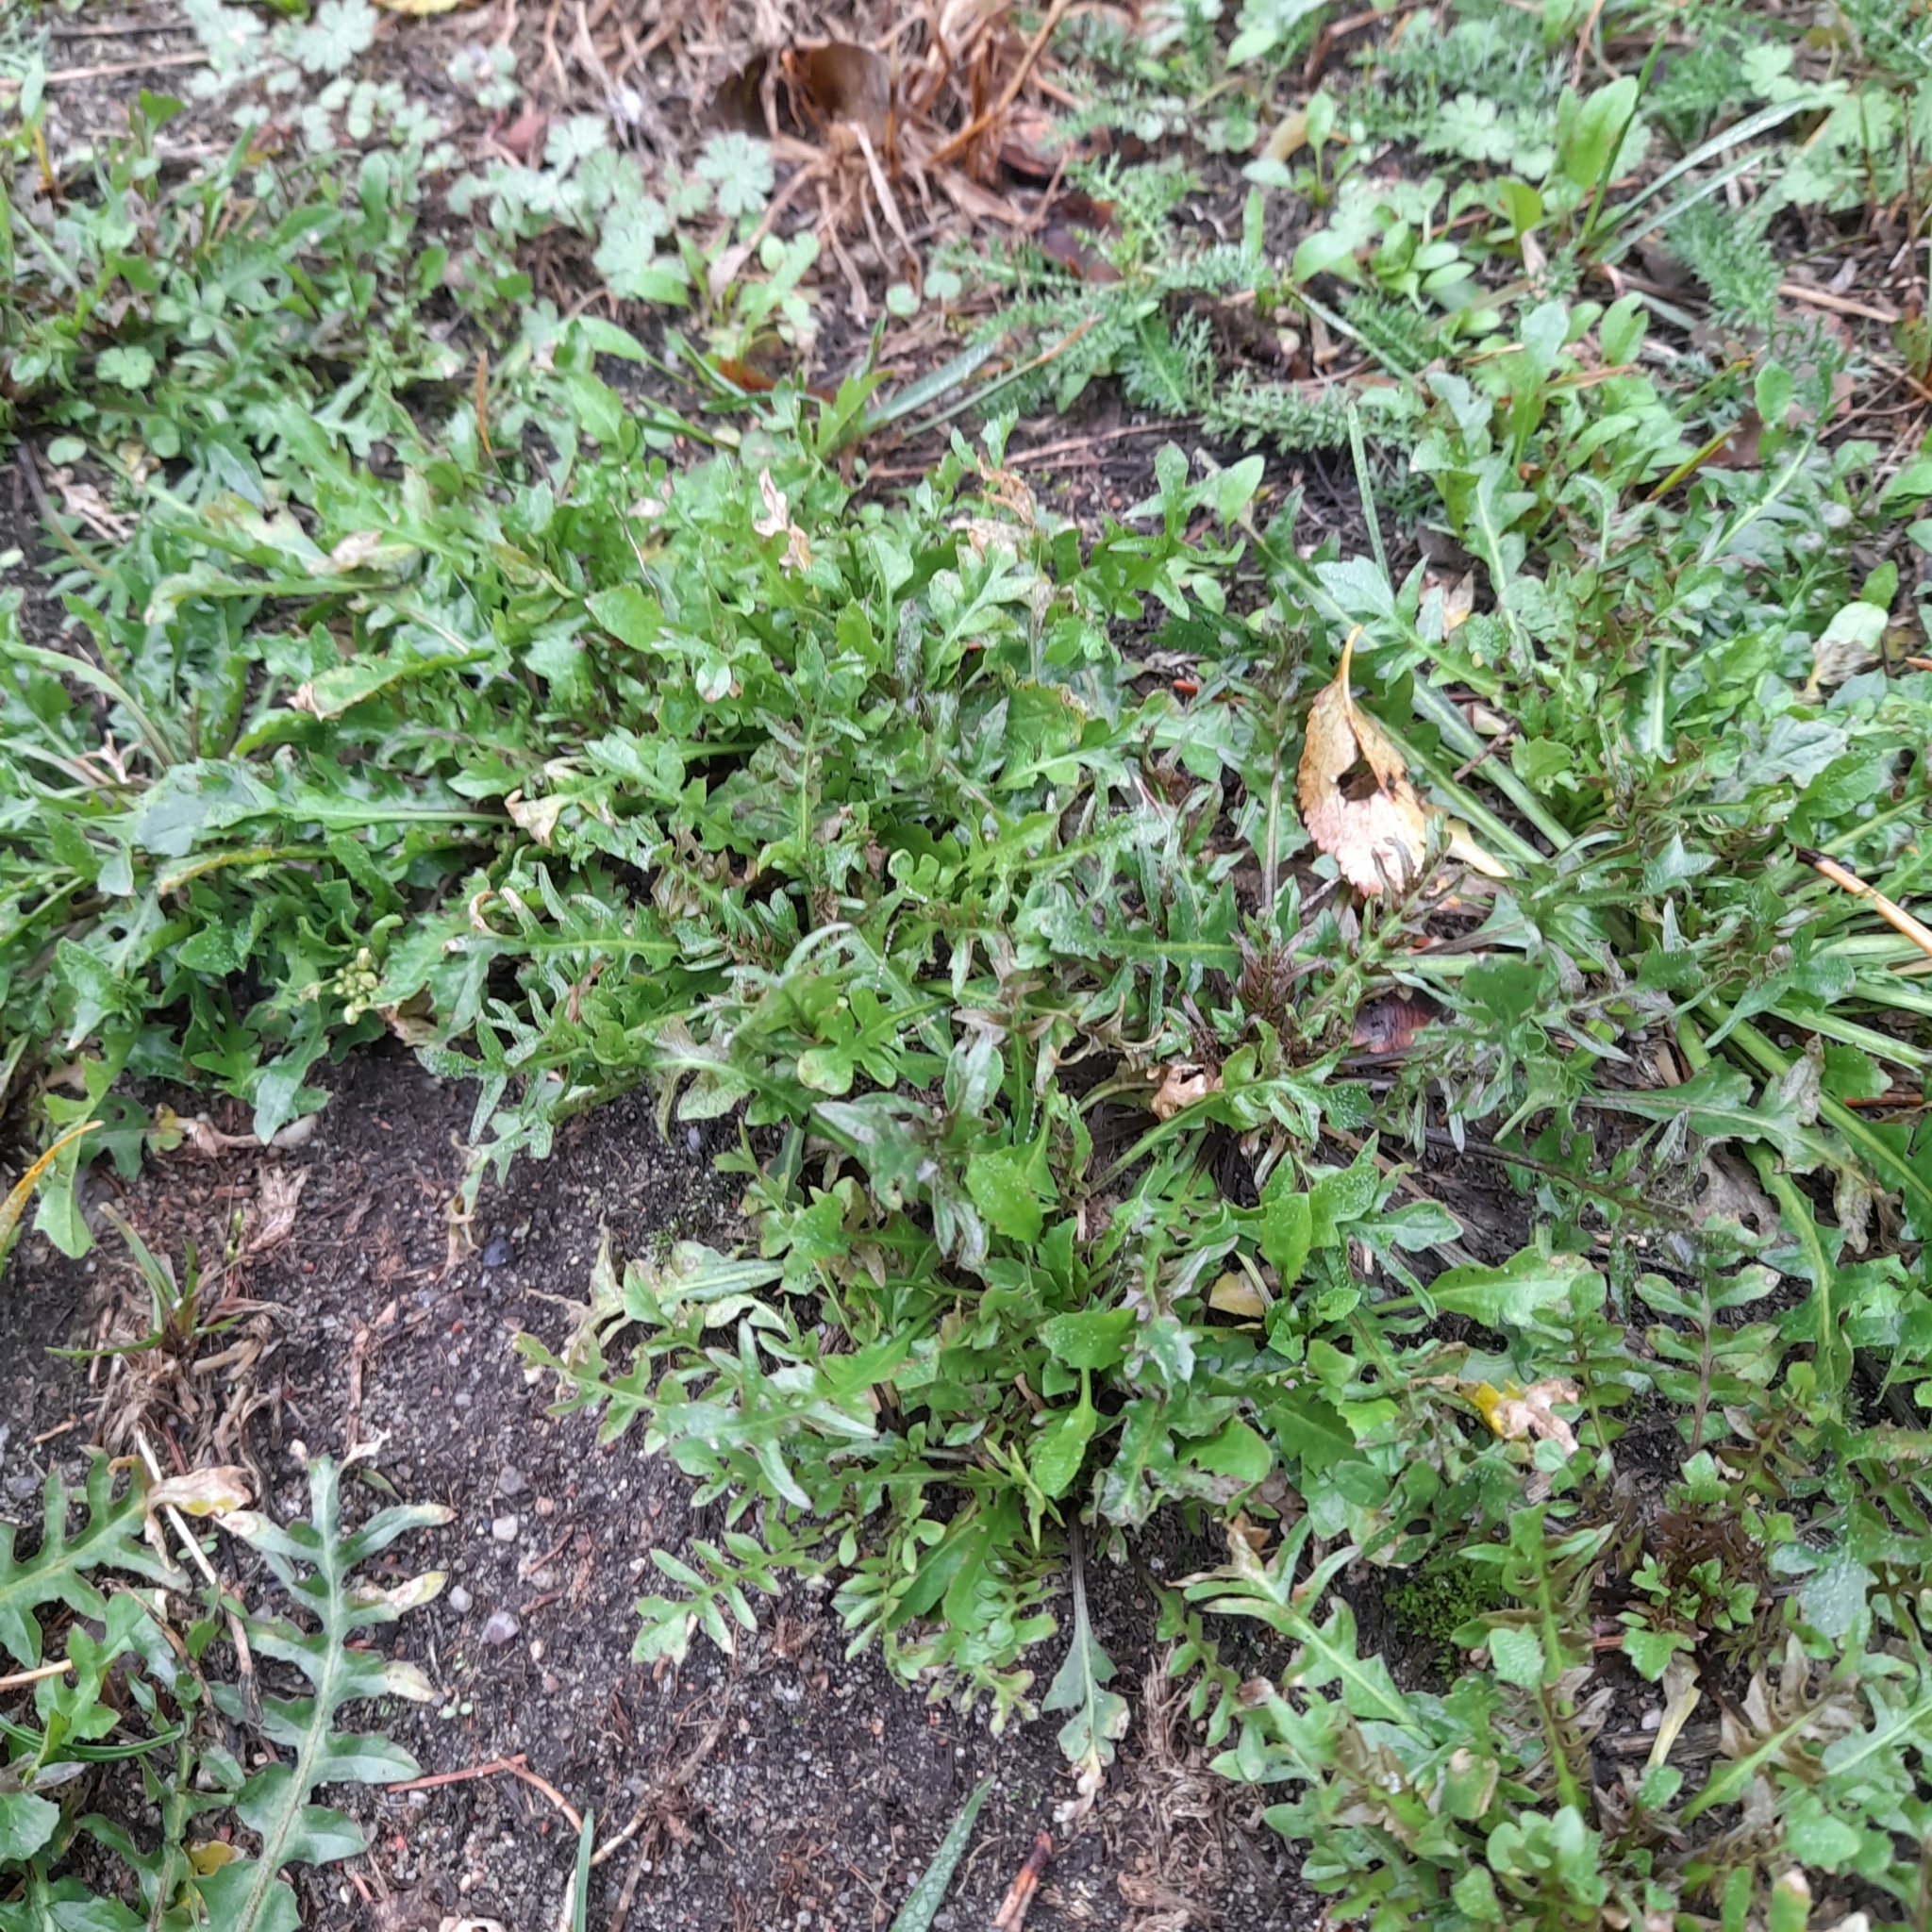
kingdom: Plantae
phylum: Tracheophyta
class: Magnoliopsida
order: Brassicales
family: Brassicaceae
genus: Capsella
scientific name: Capsella bursa-pastoris
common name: Shepherd's purse
